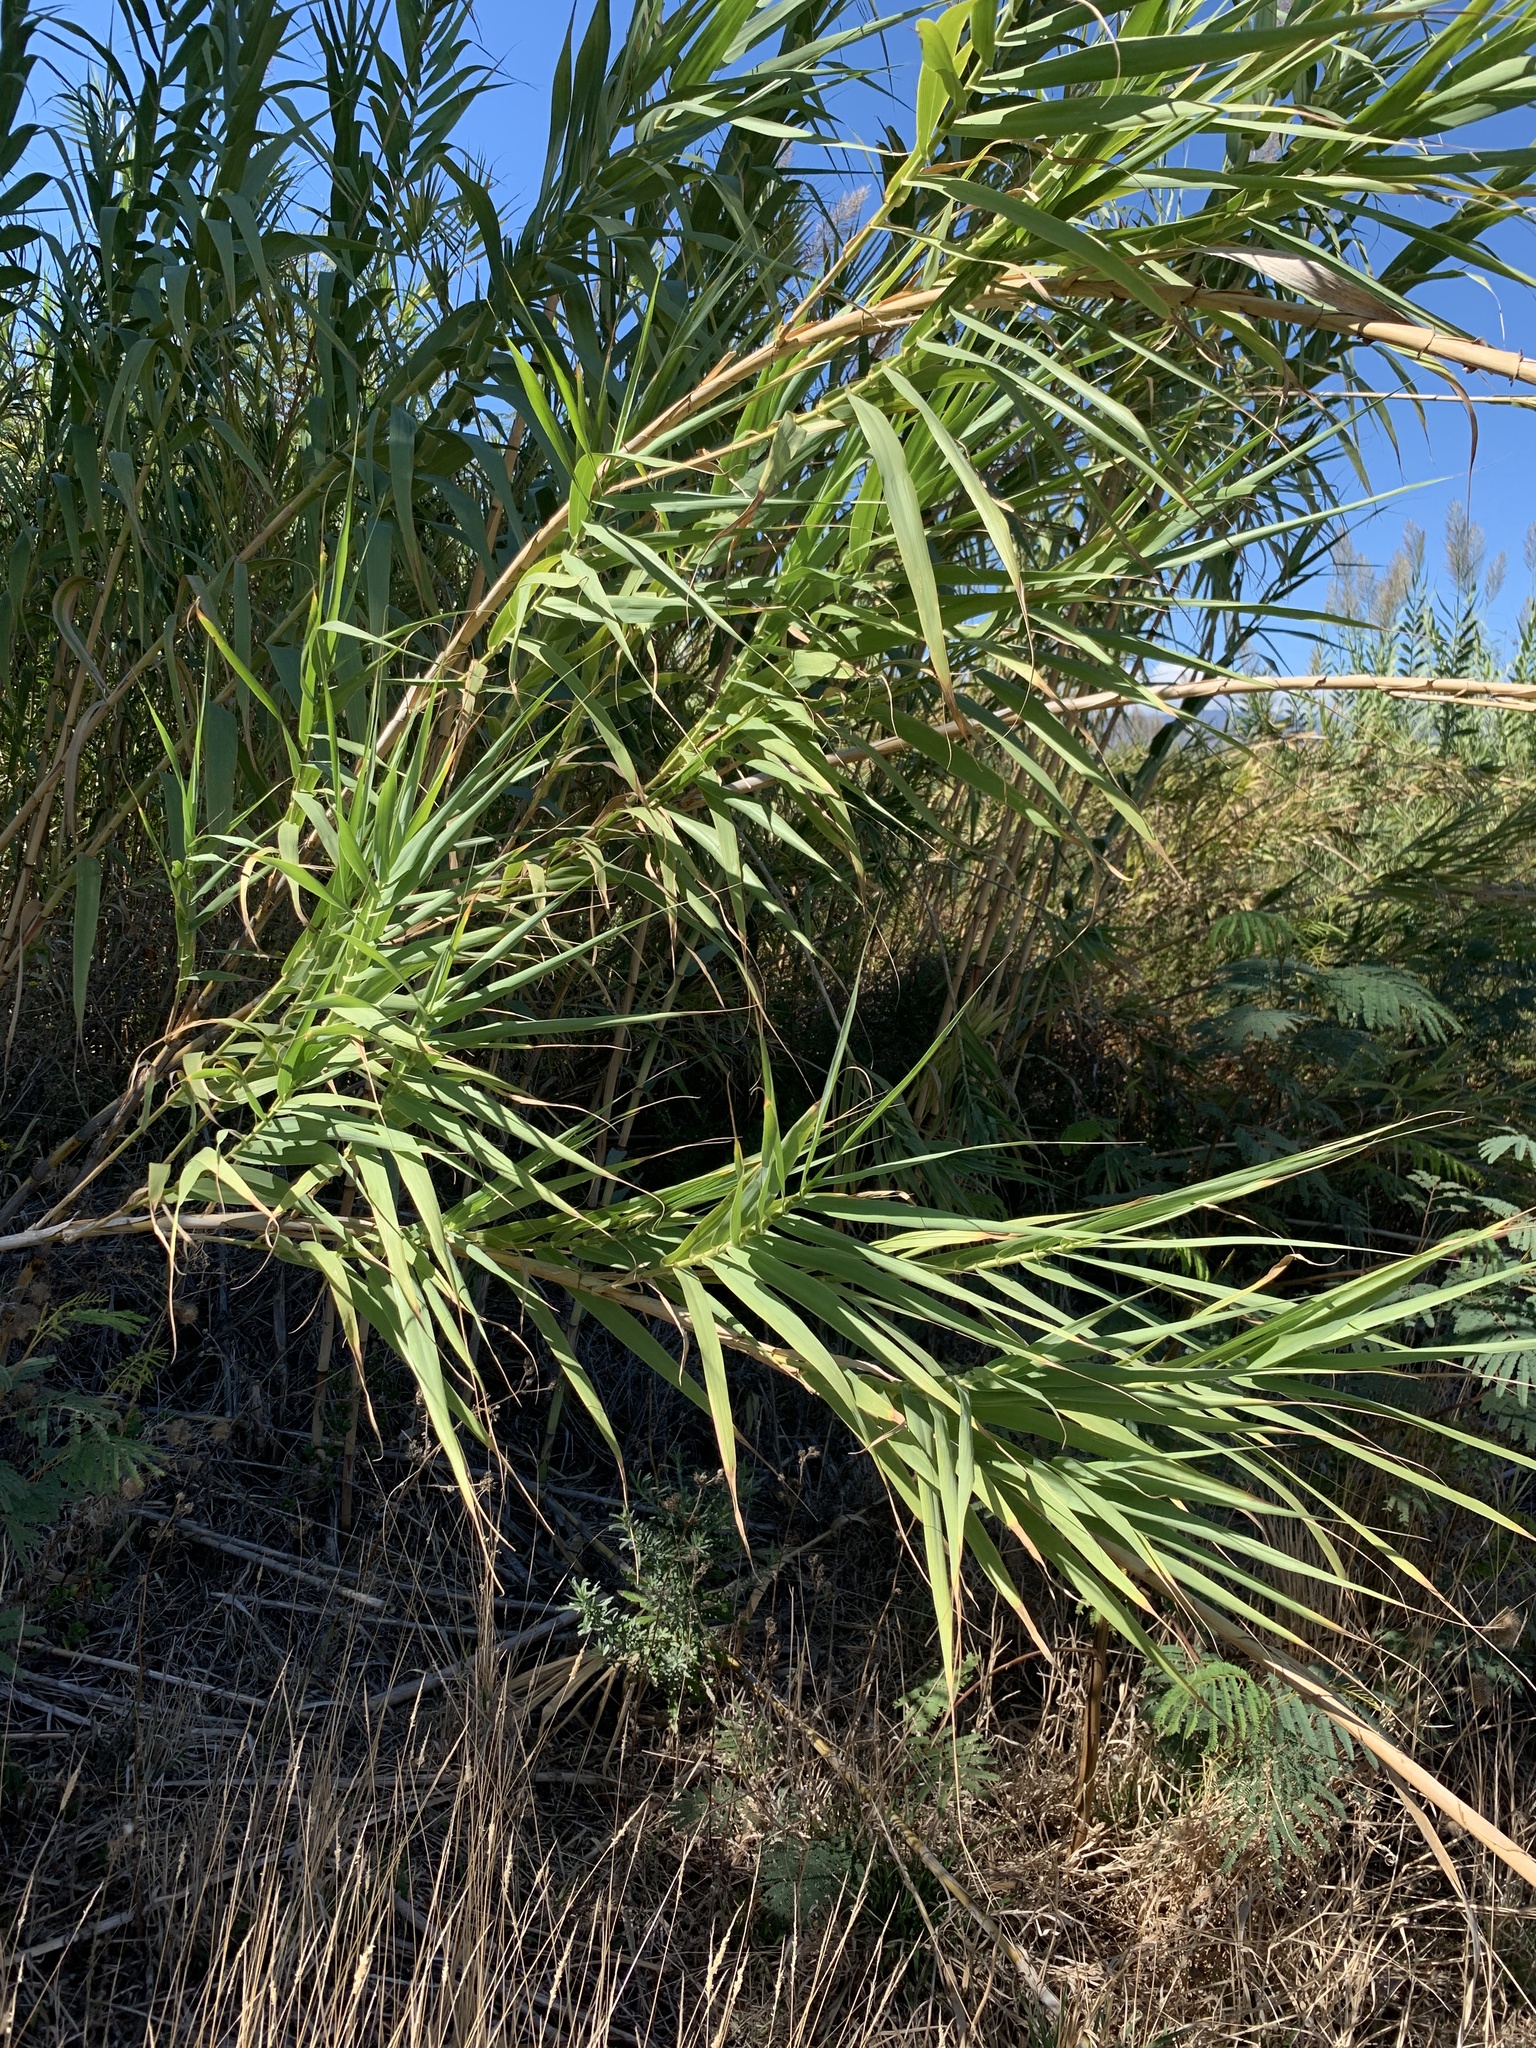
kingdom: Plantae
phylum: Tracheophyta
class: Liliopsida
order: Poales
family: Poaceae
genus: Arundo
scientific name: Arundo donax
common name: Giant reed
